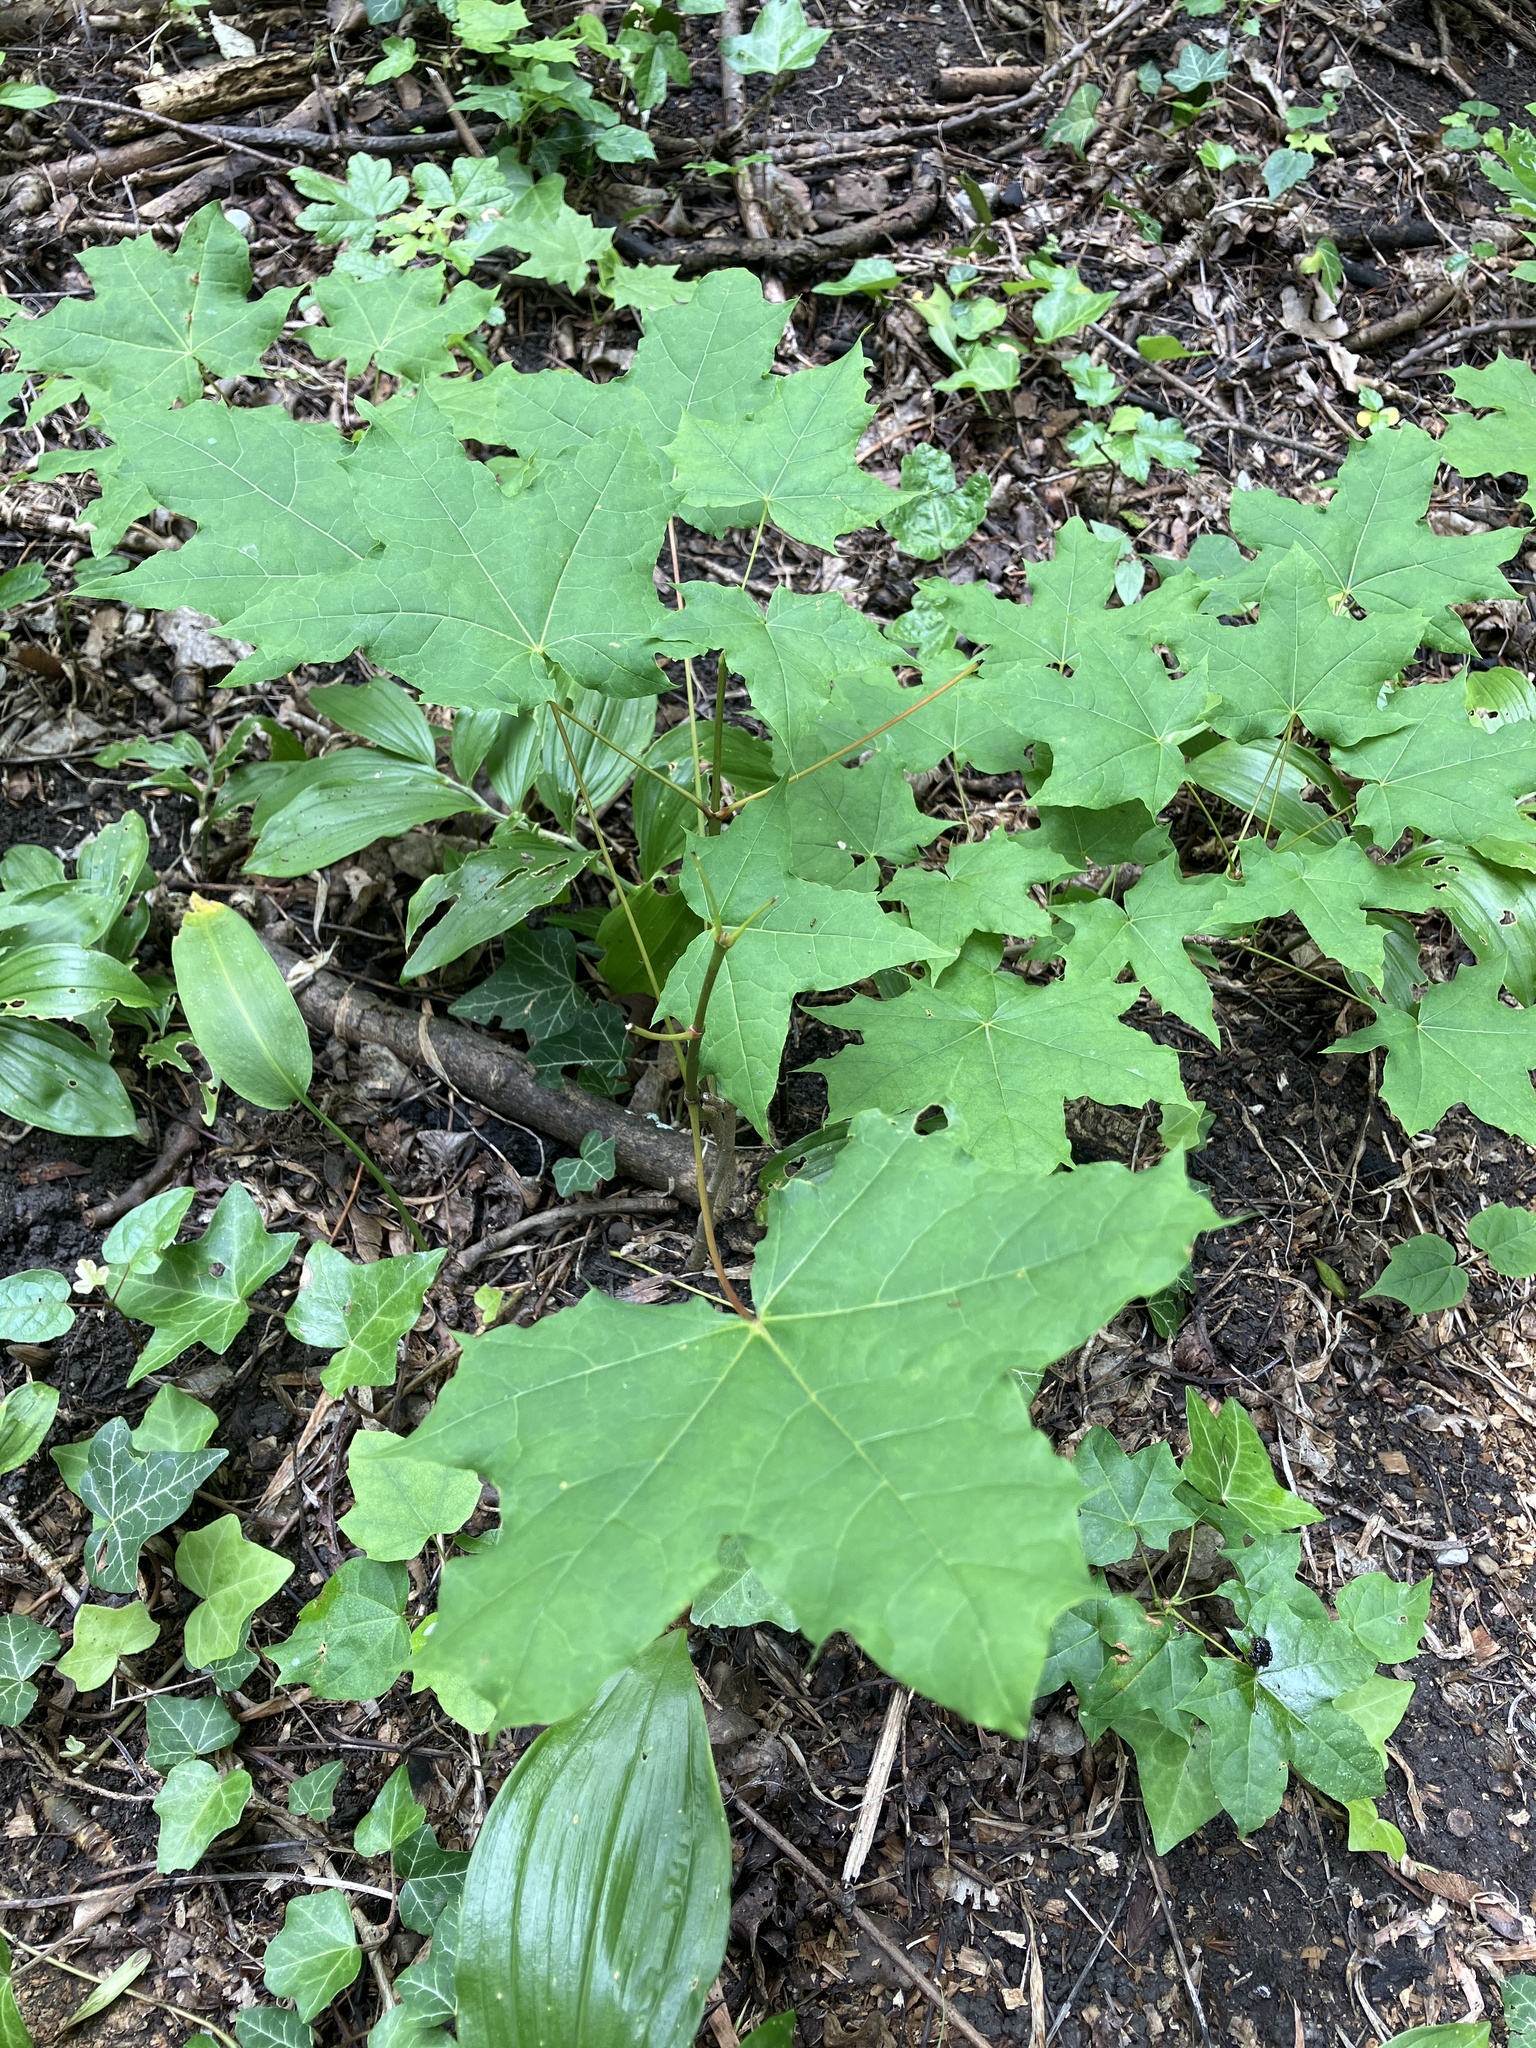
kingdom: Plantae
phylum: Tracheophyta
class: Magnoliopsida
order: Sapindales
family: Sapindaceae
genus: Acer
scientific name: Acer platanoides
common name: Norway maple
